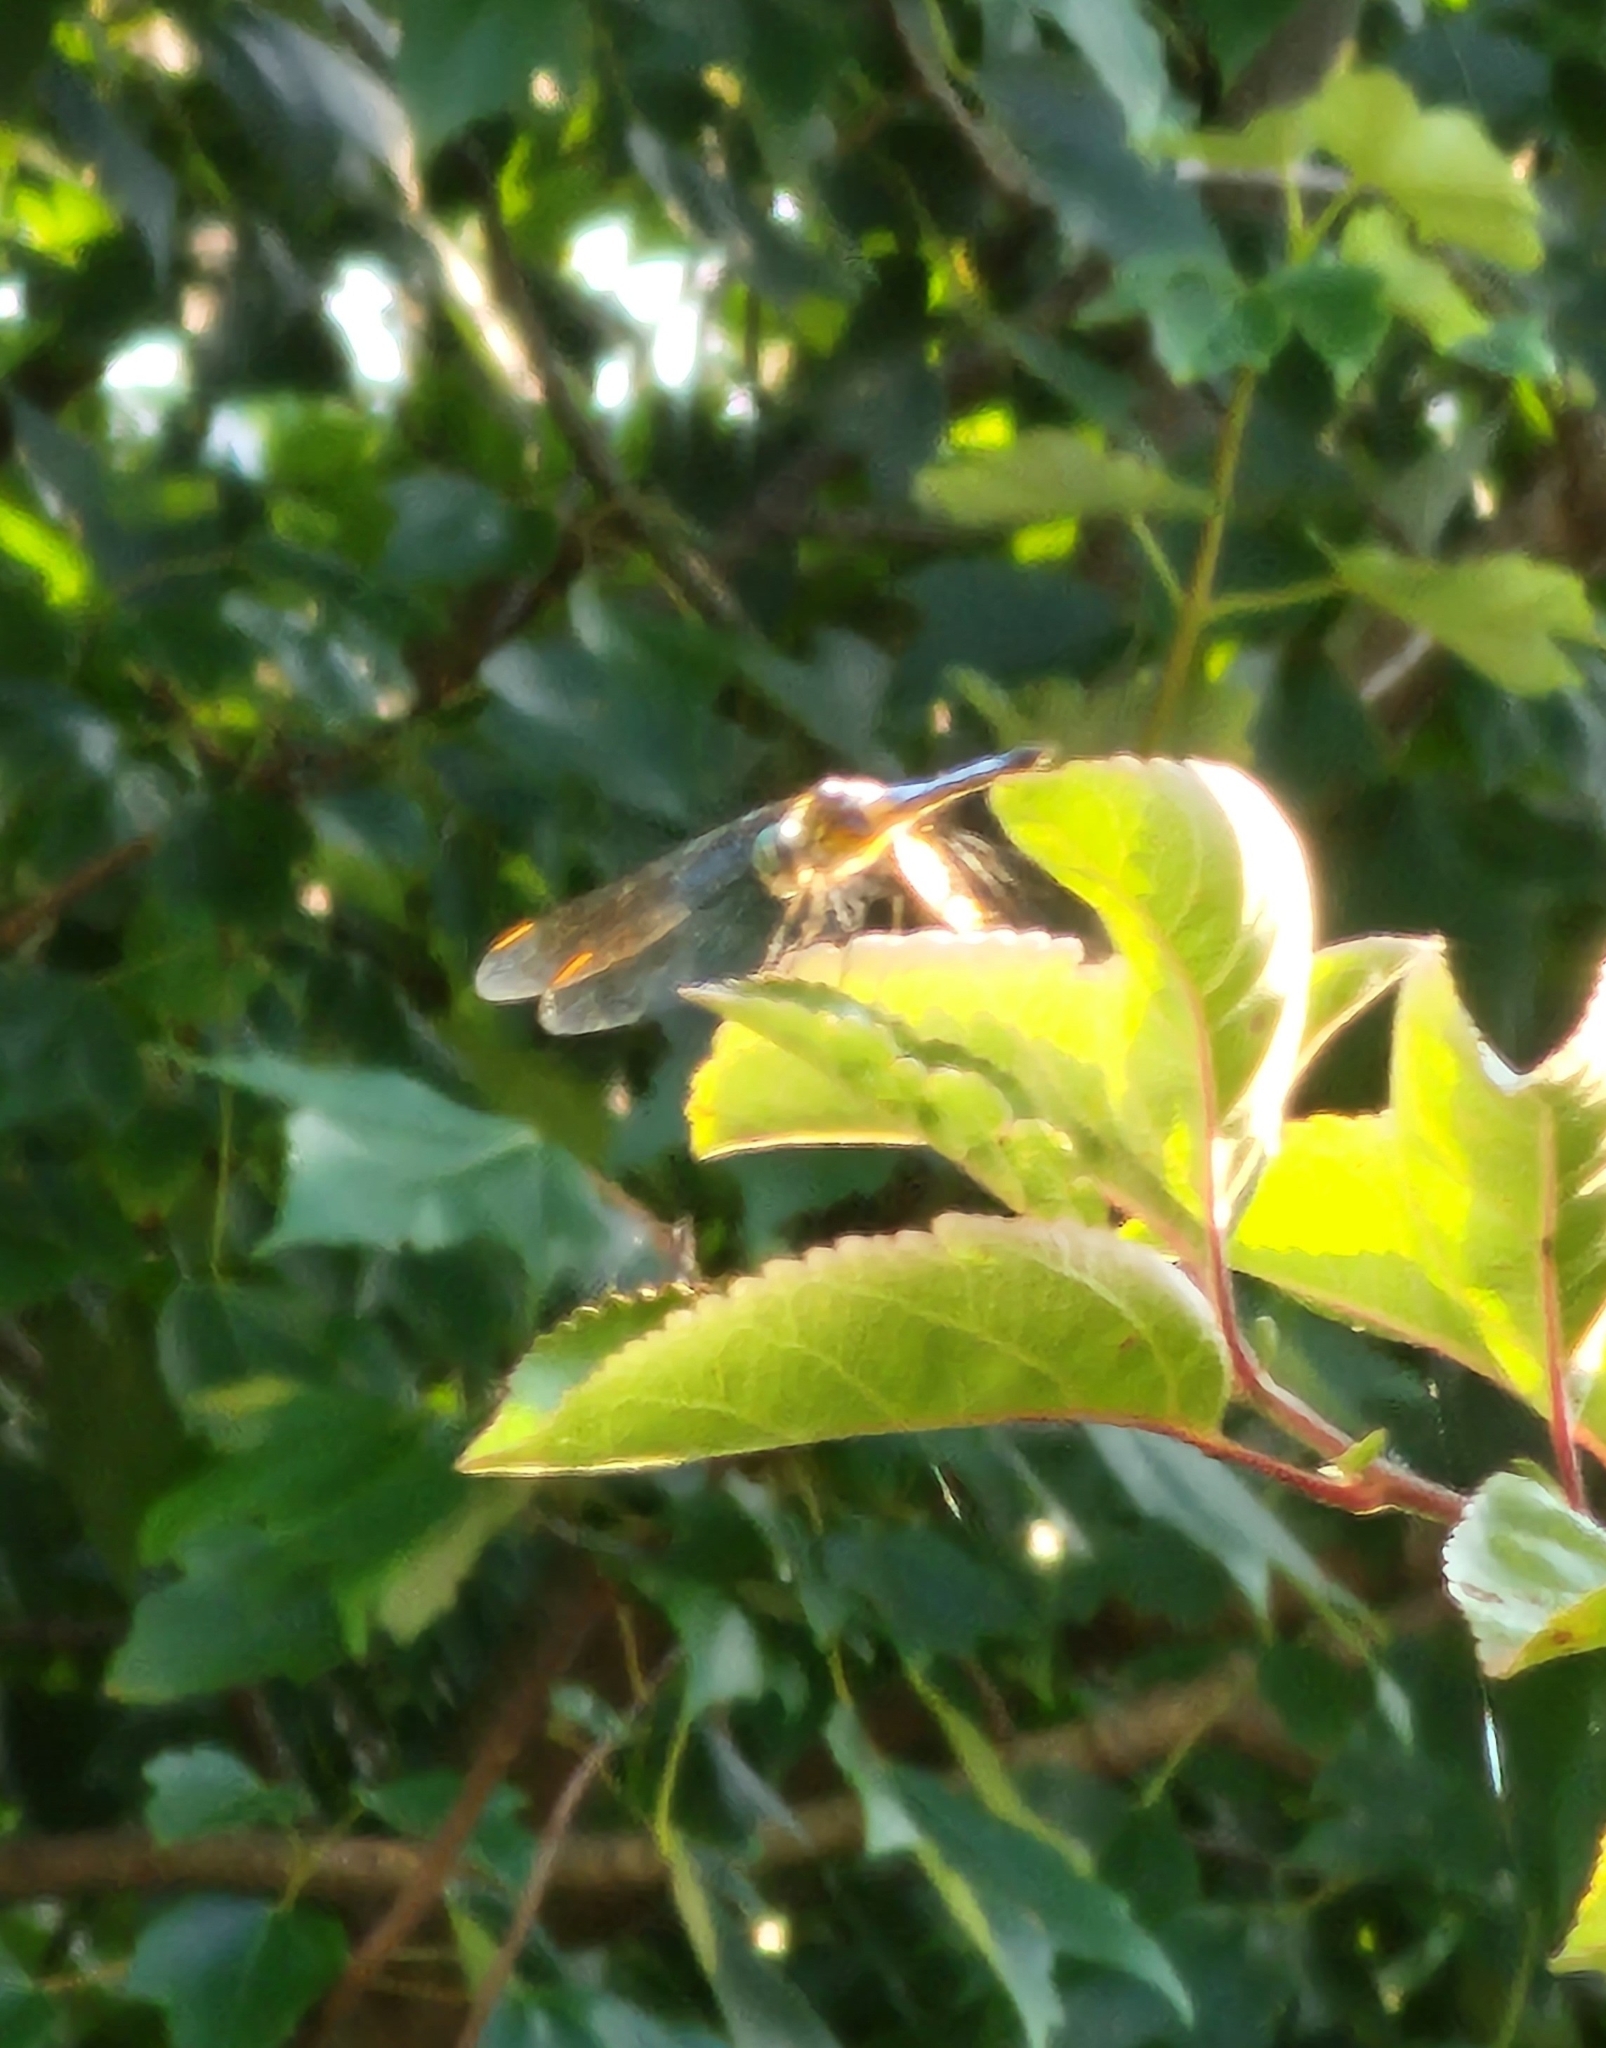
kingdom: Animalia
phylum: Arthropoda
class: Insecta
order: Odonata
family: Libellulidae
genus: Pachydiplax
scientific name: Pachydiplax longipennis
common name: Blue dasher
